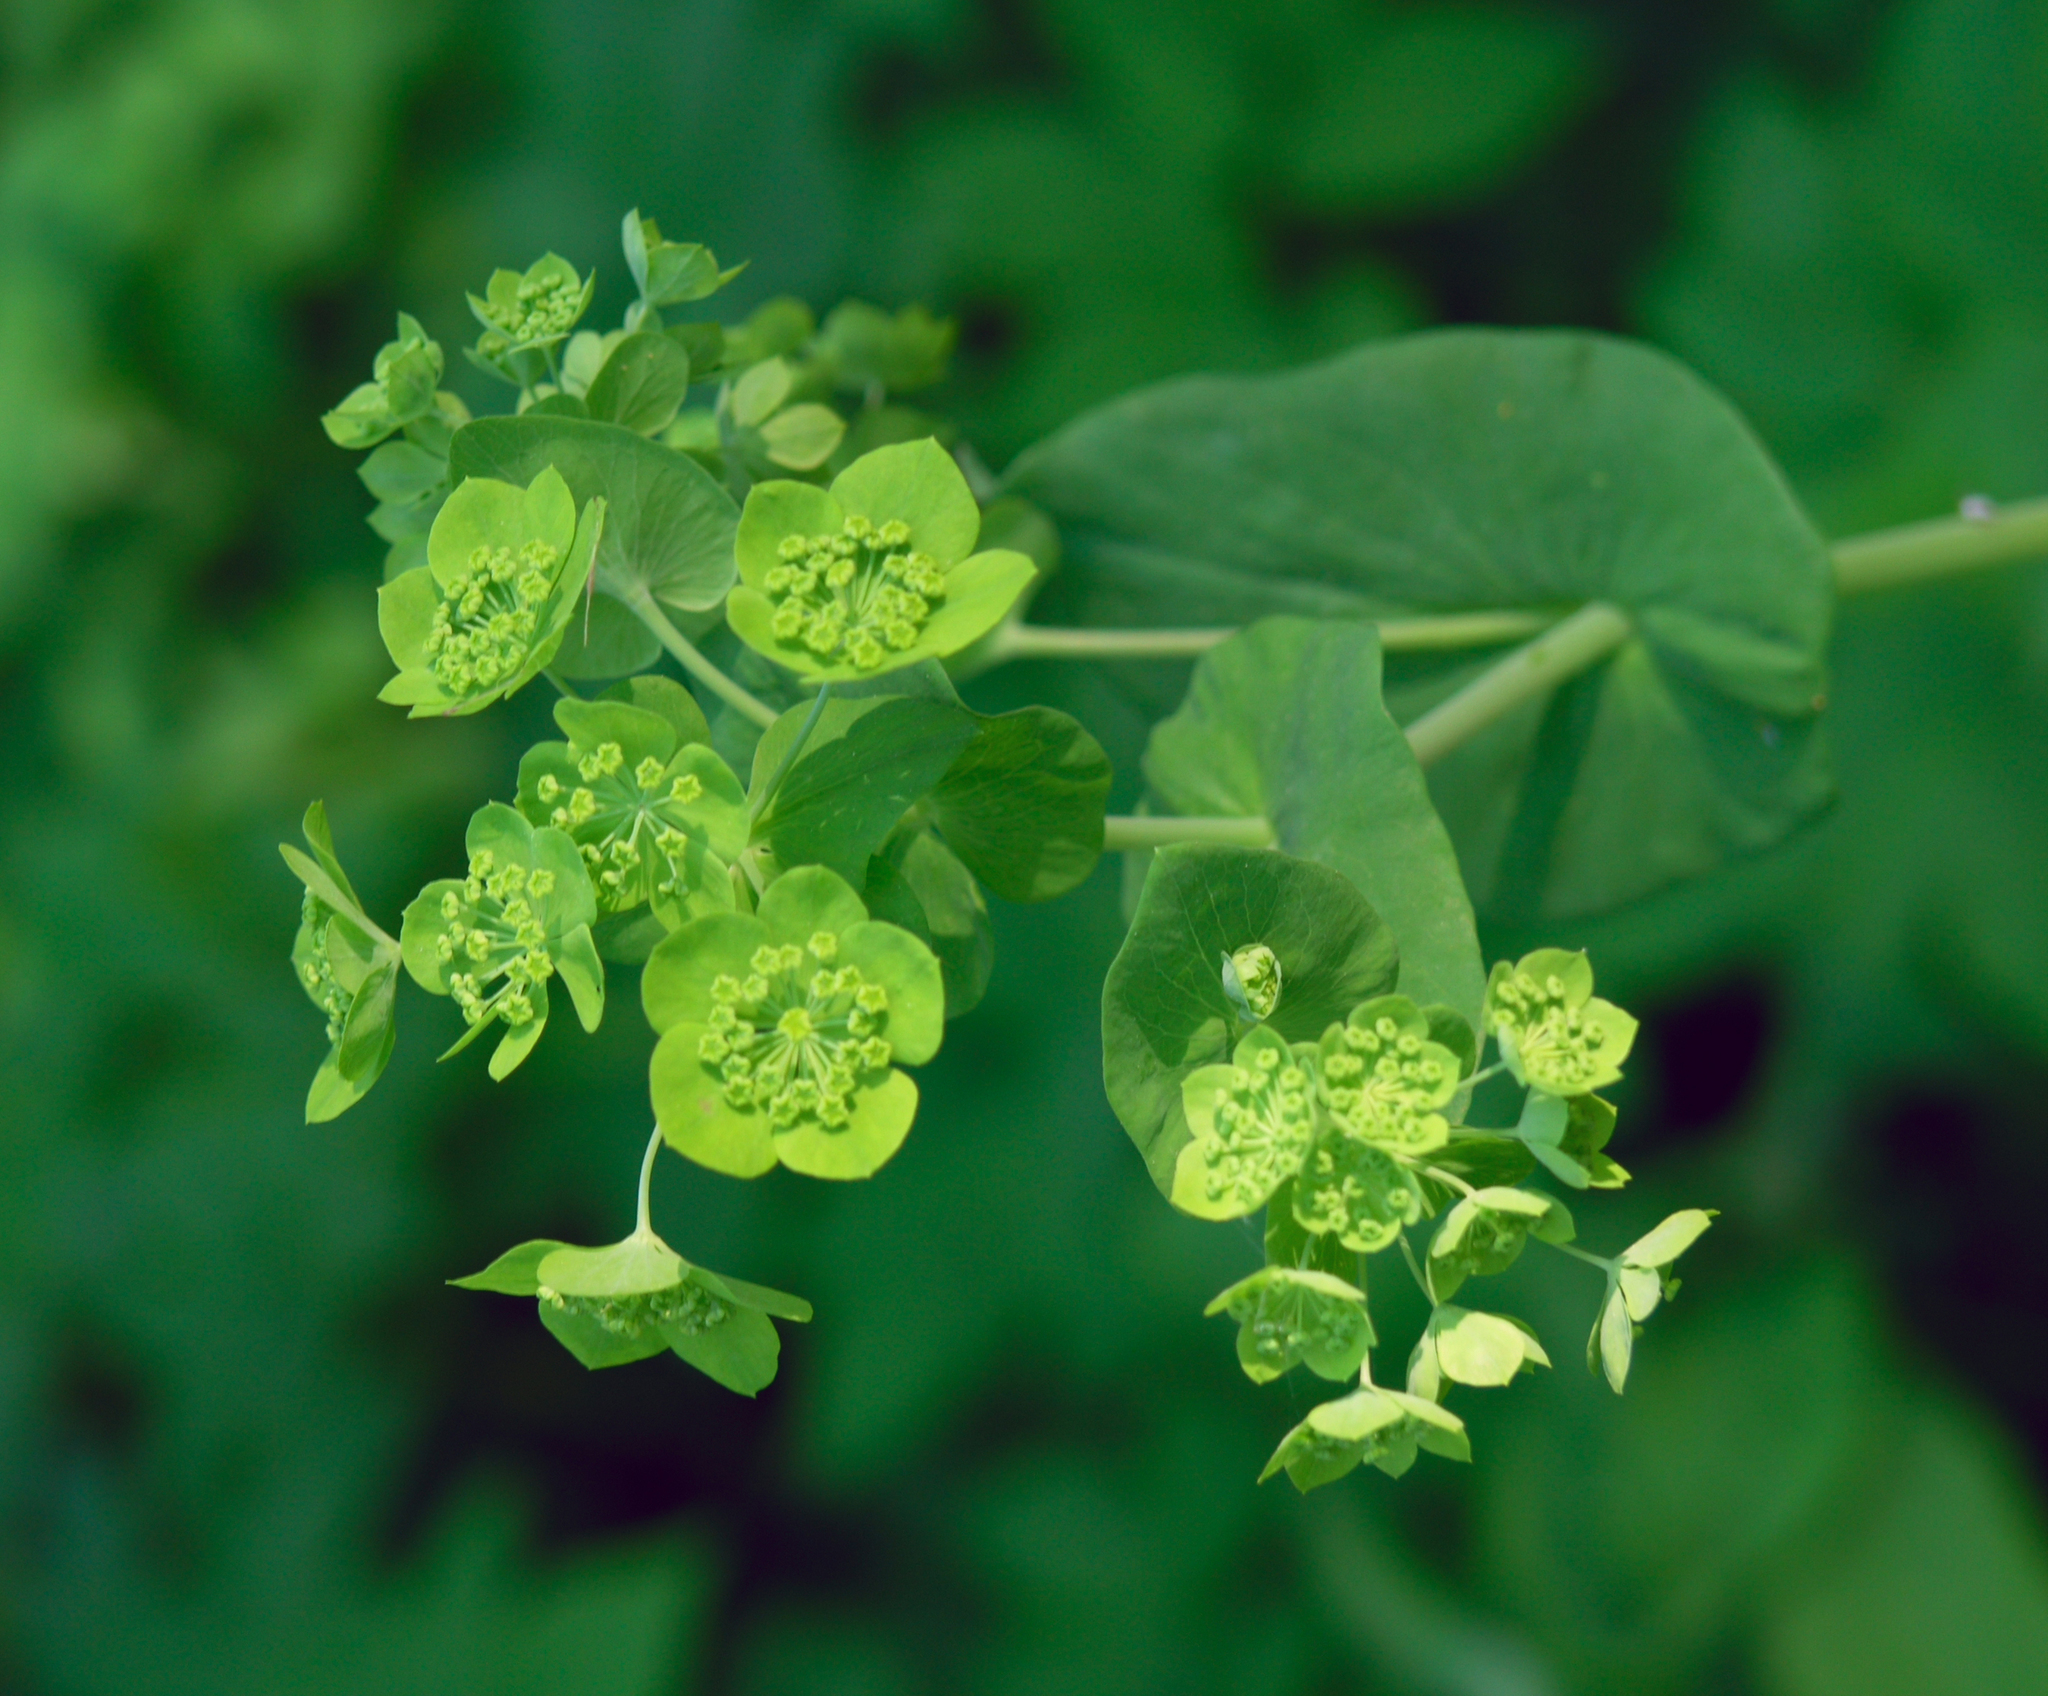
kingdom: Plantae
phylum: Tracheophyta
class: Magnoliopsida
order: Apiales
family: Apiaceae
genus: Bupleurum
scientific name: Bupleurum aureum
